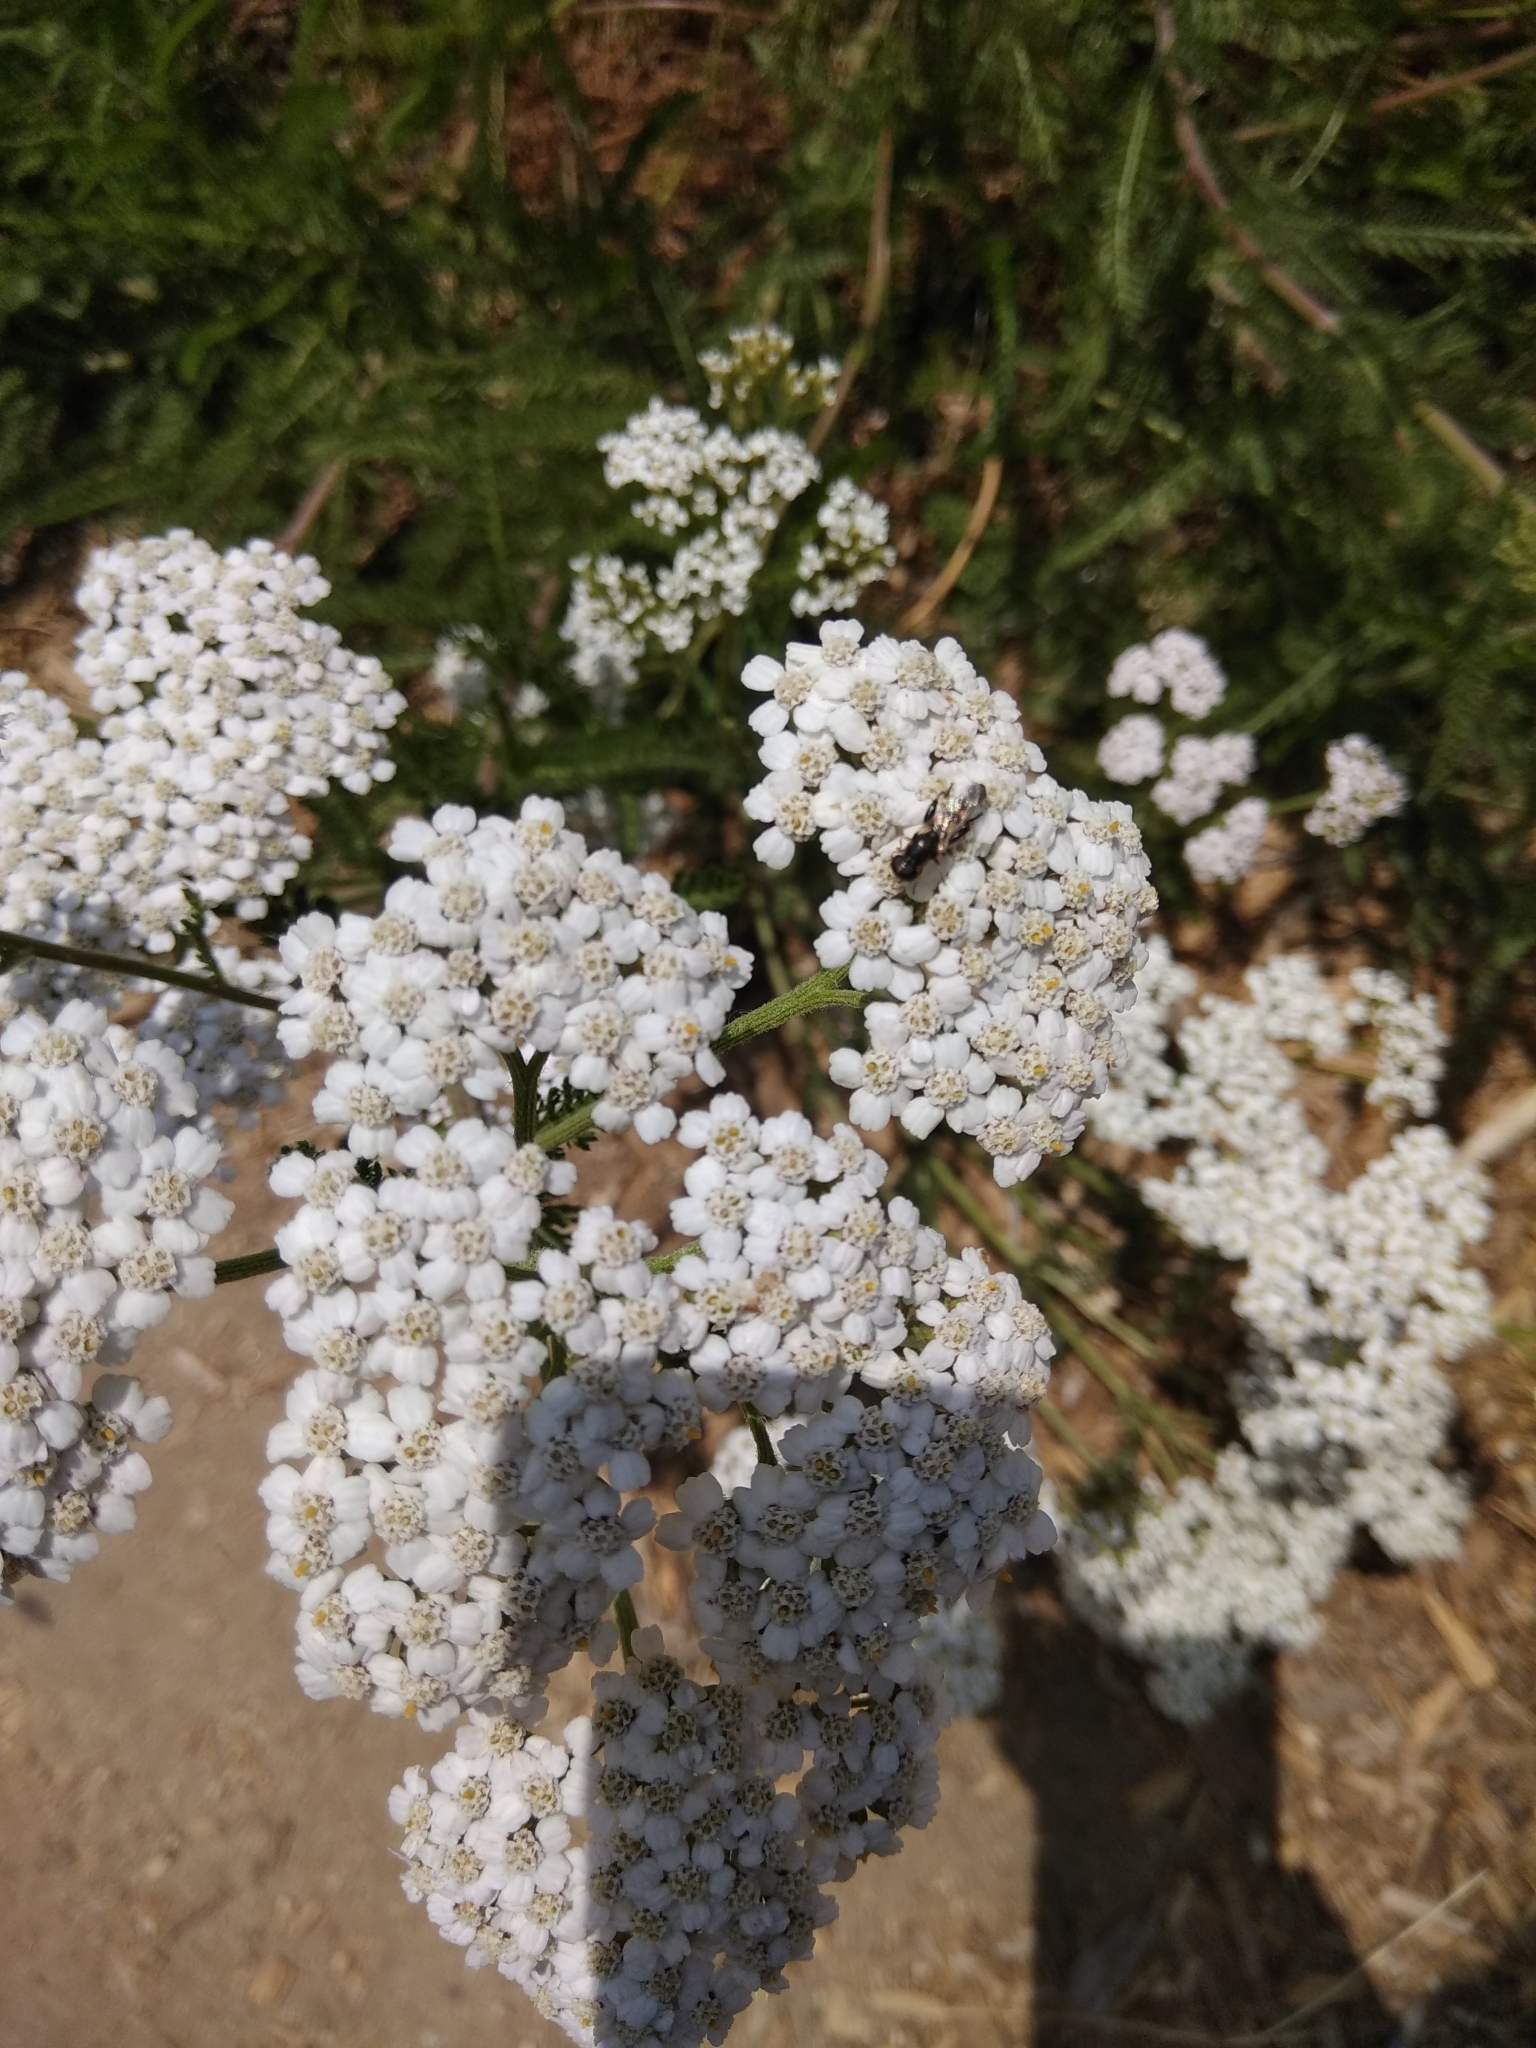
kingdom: Animalia
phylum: Arthropoda
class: Insecta
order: Diptera
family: Syrphidae
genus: Syritta
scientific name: Syritta pipiens
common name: Hover fly
